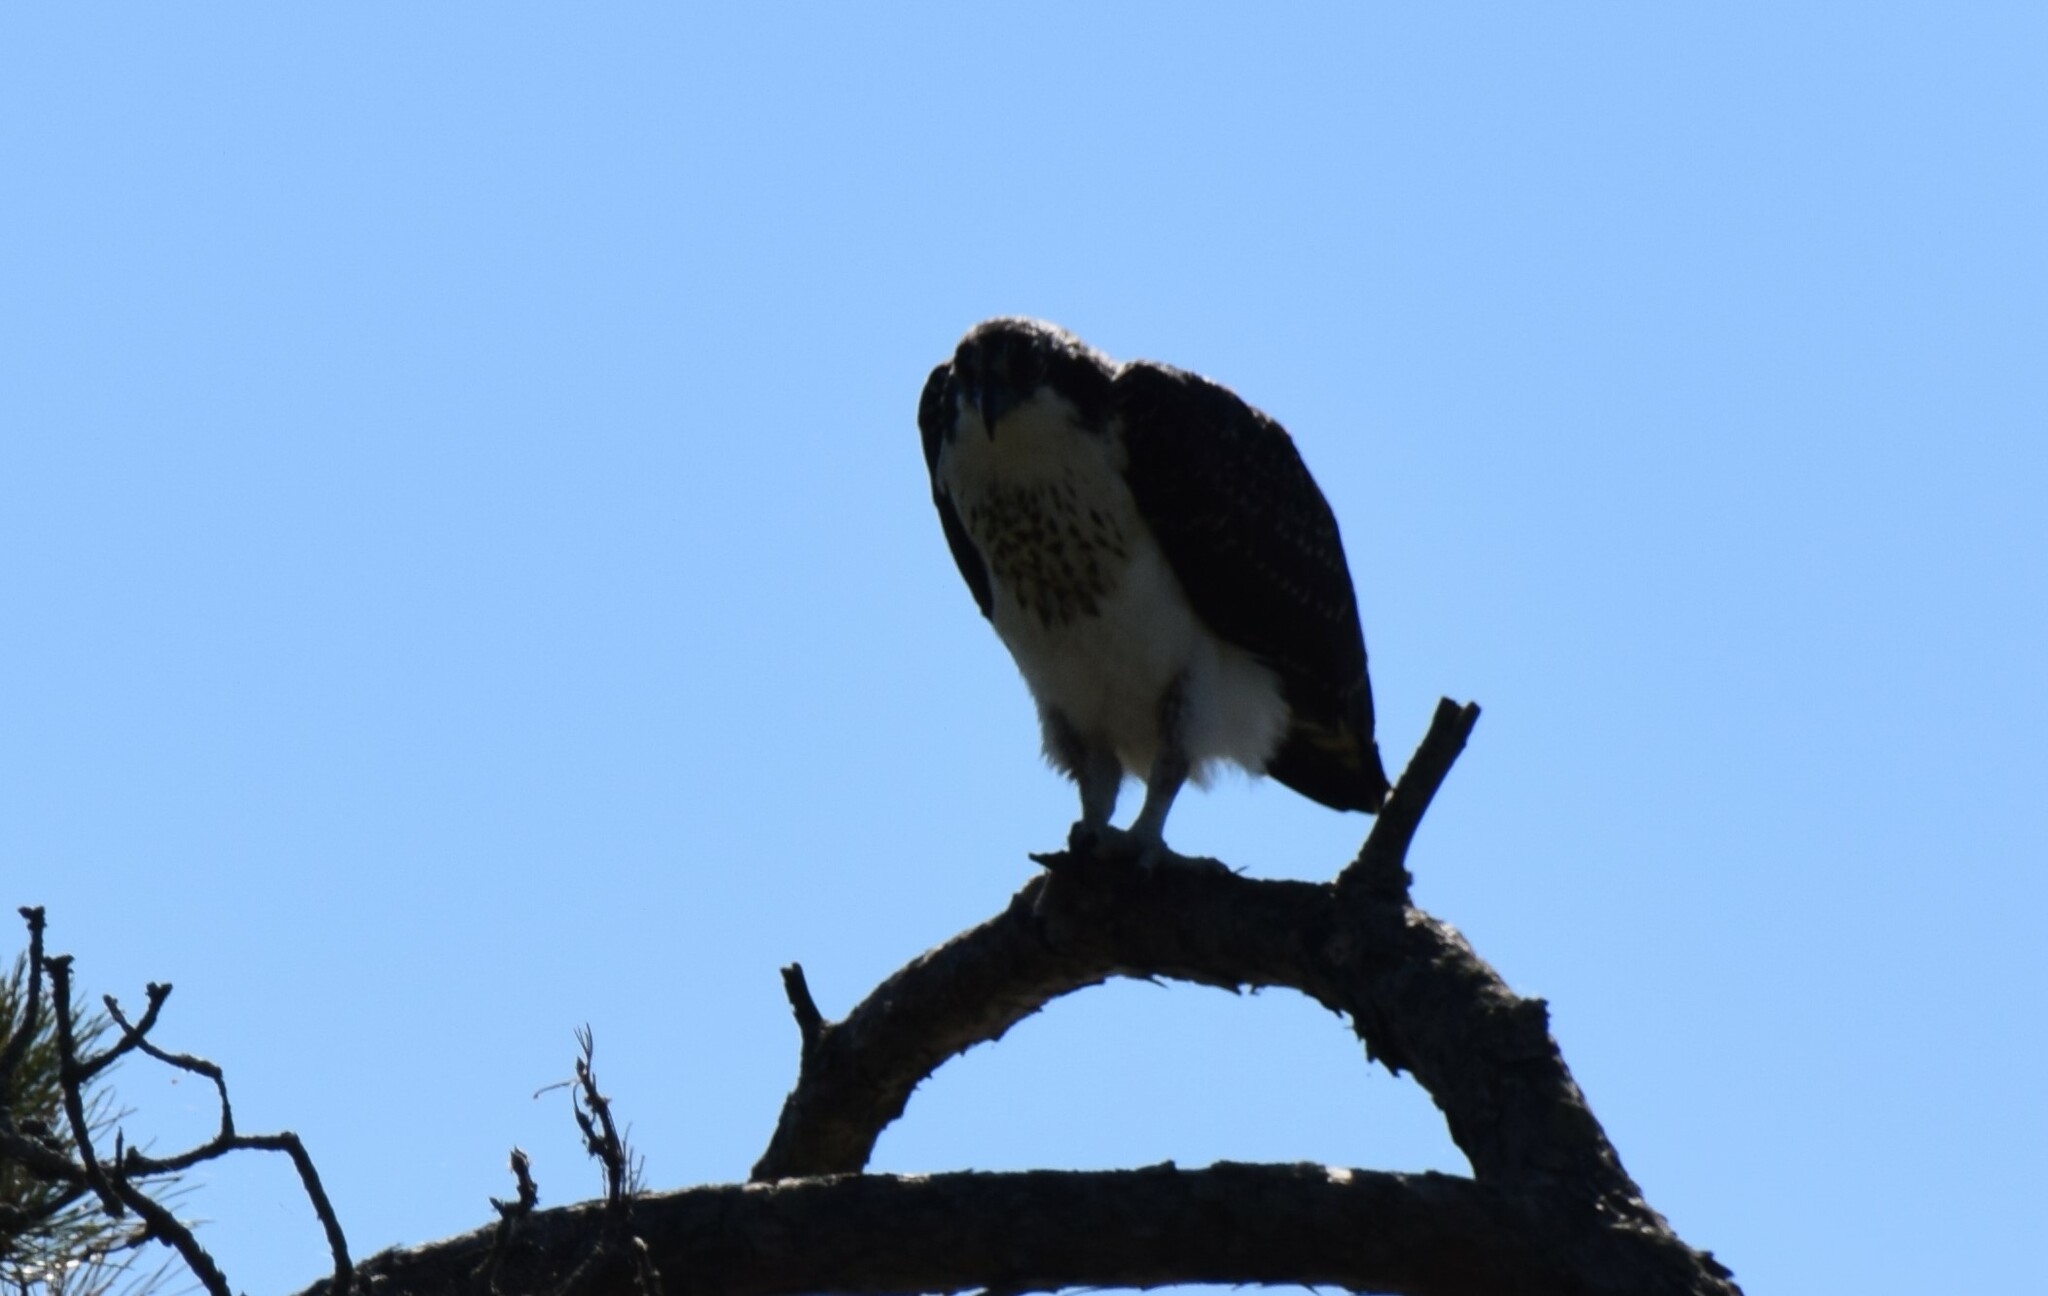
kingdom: Animalia
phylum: Chordata
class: Aves
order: Accipitriformes
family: Pandionidae
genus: Pandion
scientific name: Pandion haliaetus
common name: Osprey
